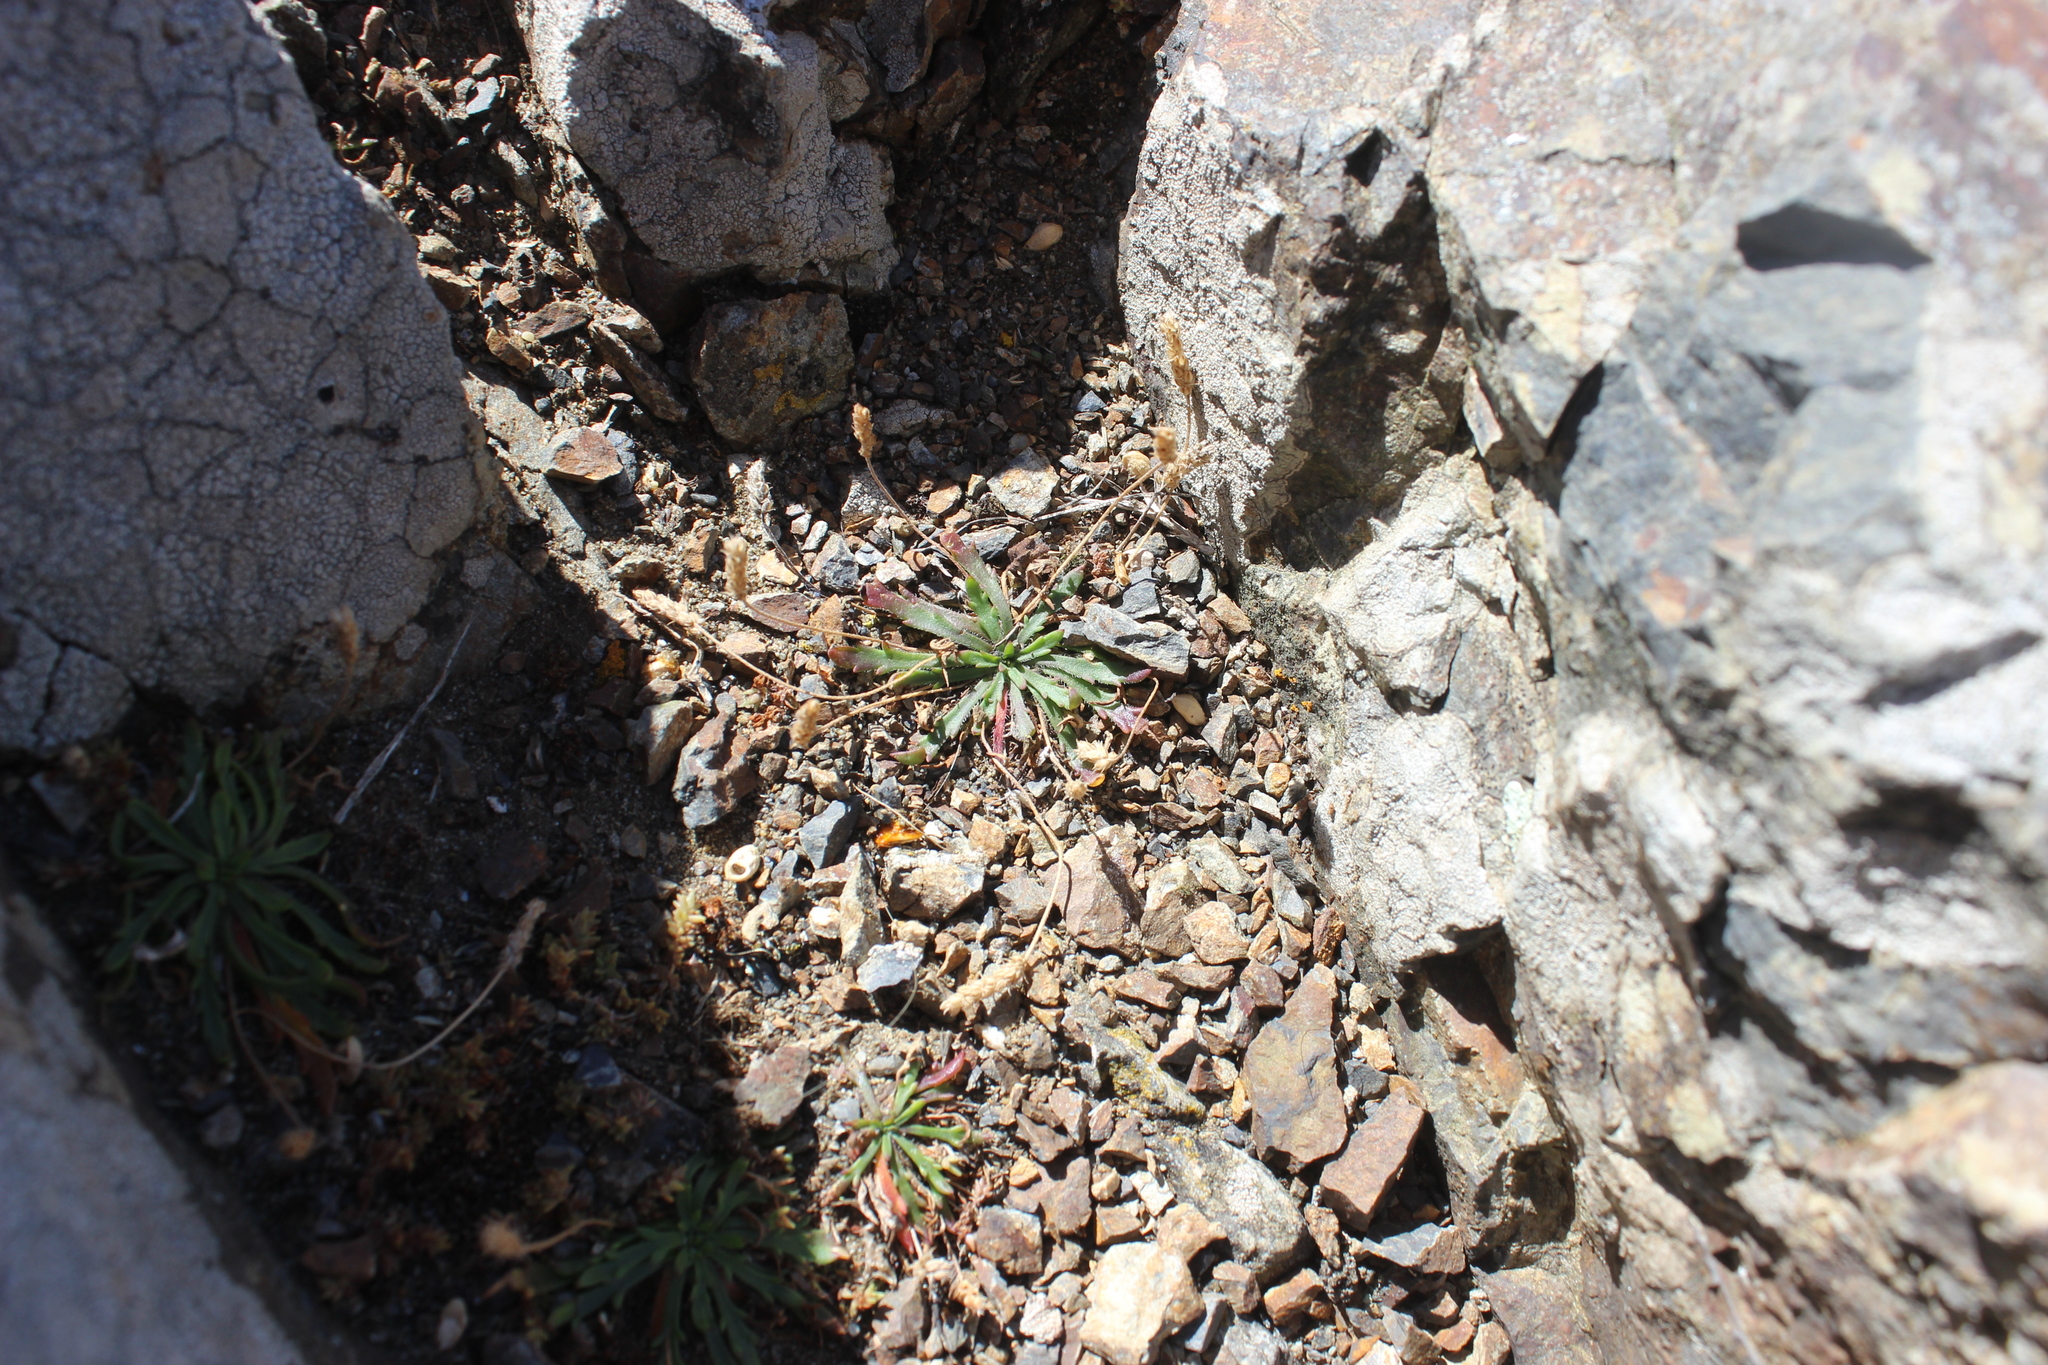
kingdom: Plantae
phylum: Tracheophyta
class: Magnoliopsida
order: Lamiales
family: Plantaginaceae
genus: Plantago
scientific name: Plantago coronopus
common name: Buck's-horn plantain
